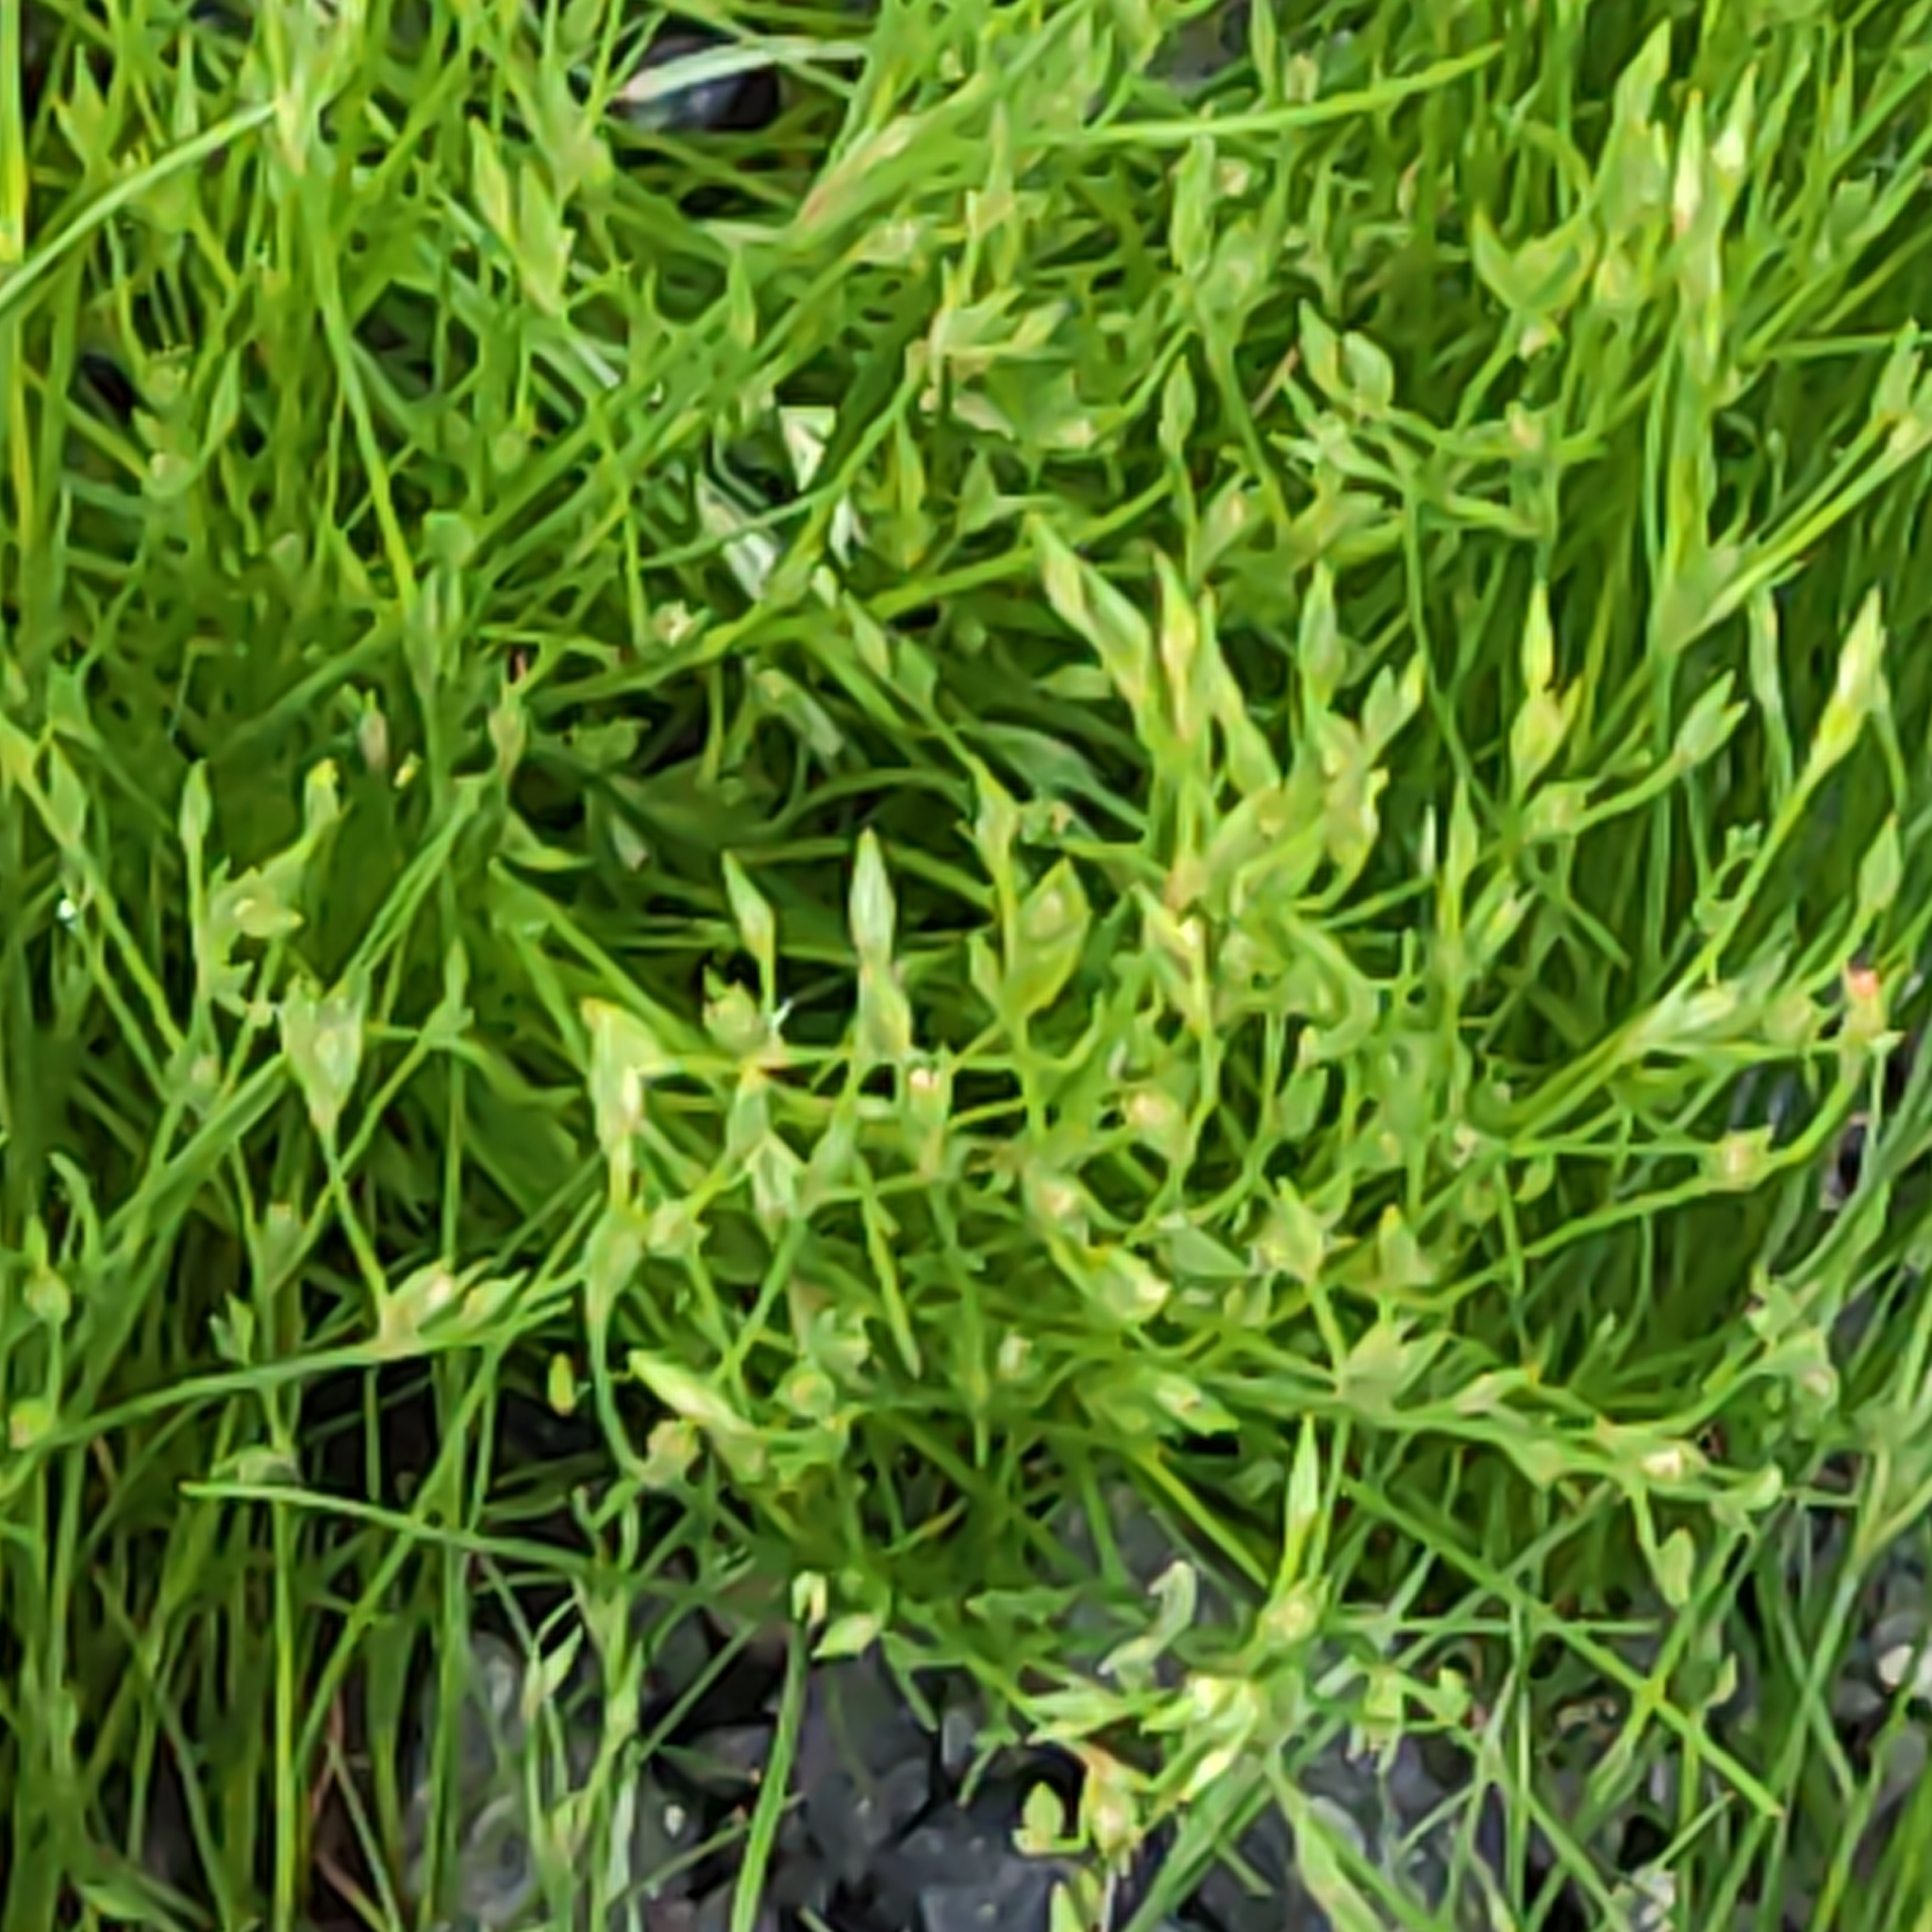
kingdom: Plantae
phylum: Tracheophyta
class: Liliopsida
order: Poales
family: Juncaceae
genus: Juncus
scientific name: Juncus bufonius
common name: Toad rush
